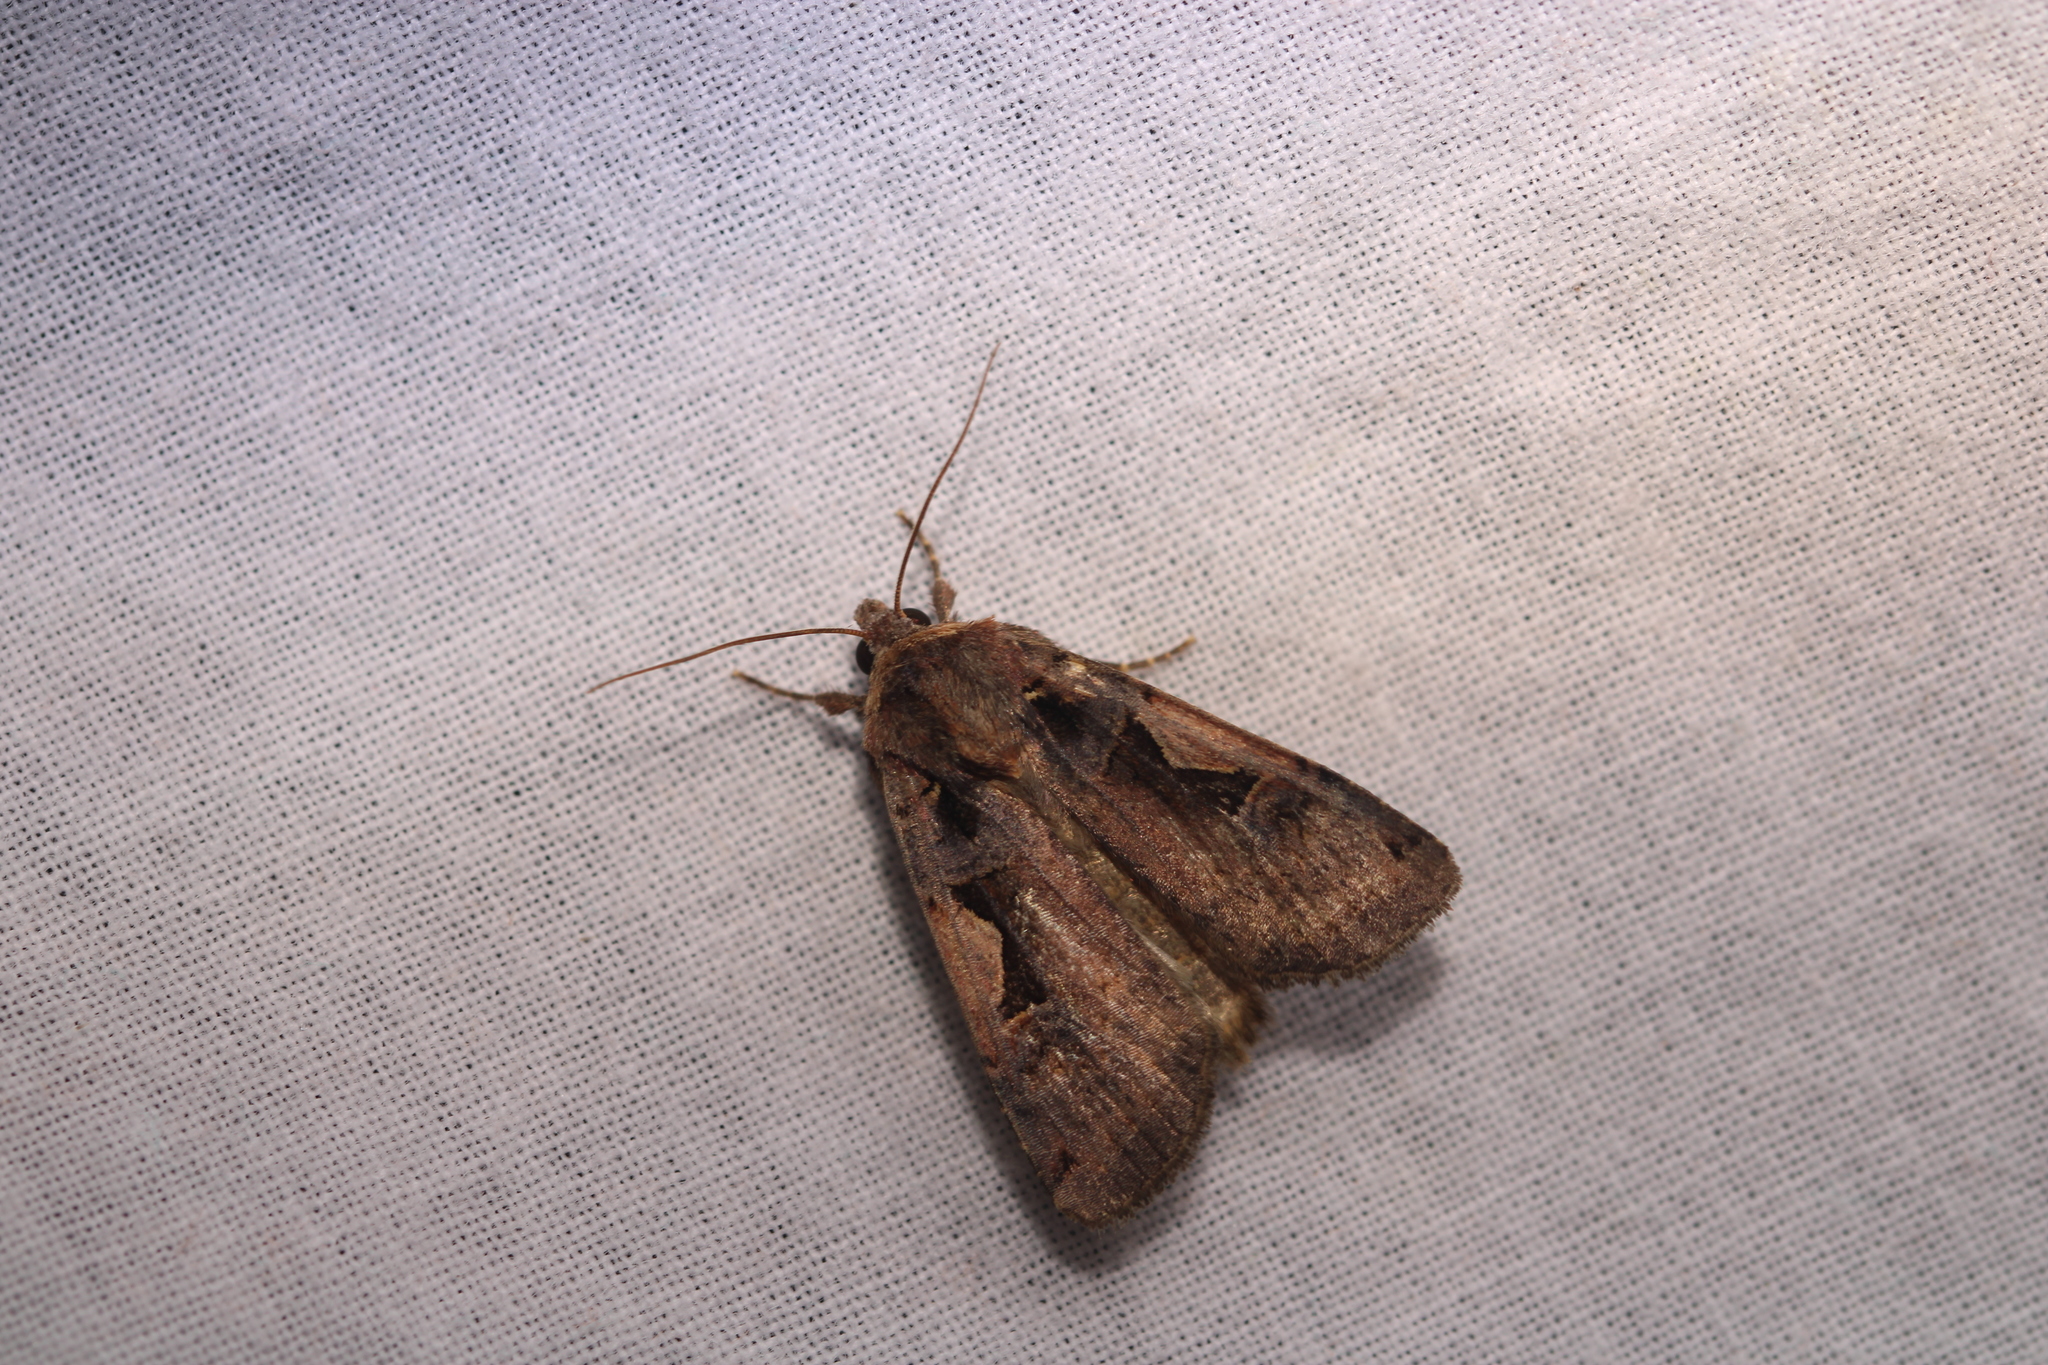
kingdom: Animalia
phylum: Arthropoda
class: Insecta
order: Lepidoptera
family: Noctuidae
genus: Xestia
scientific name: Xestia c-nigrum
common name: Setaceous hebrew character
